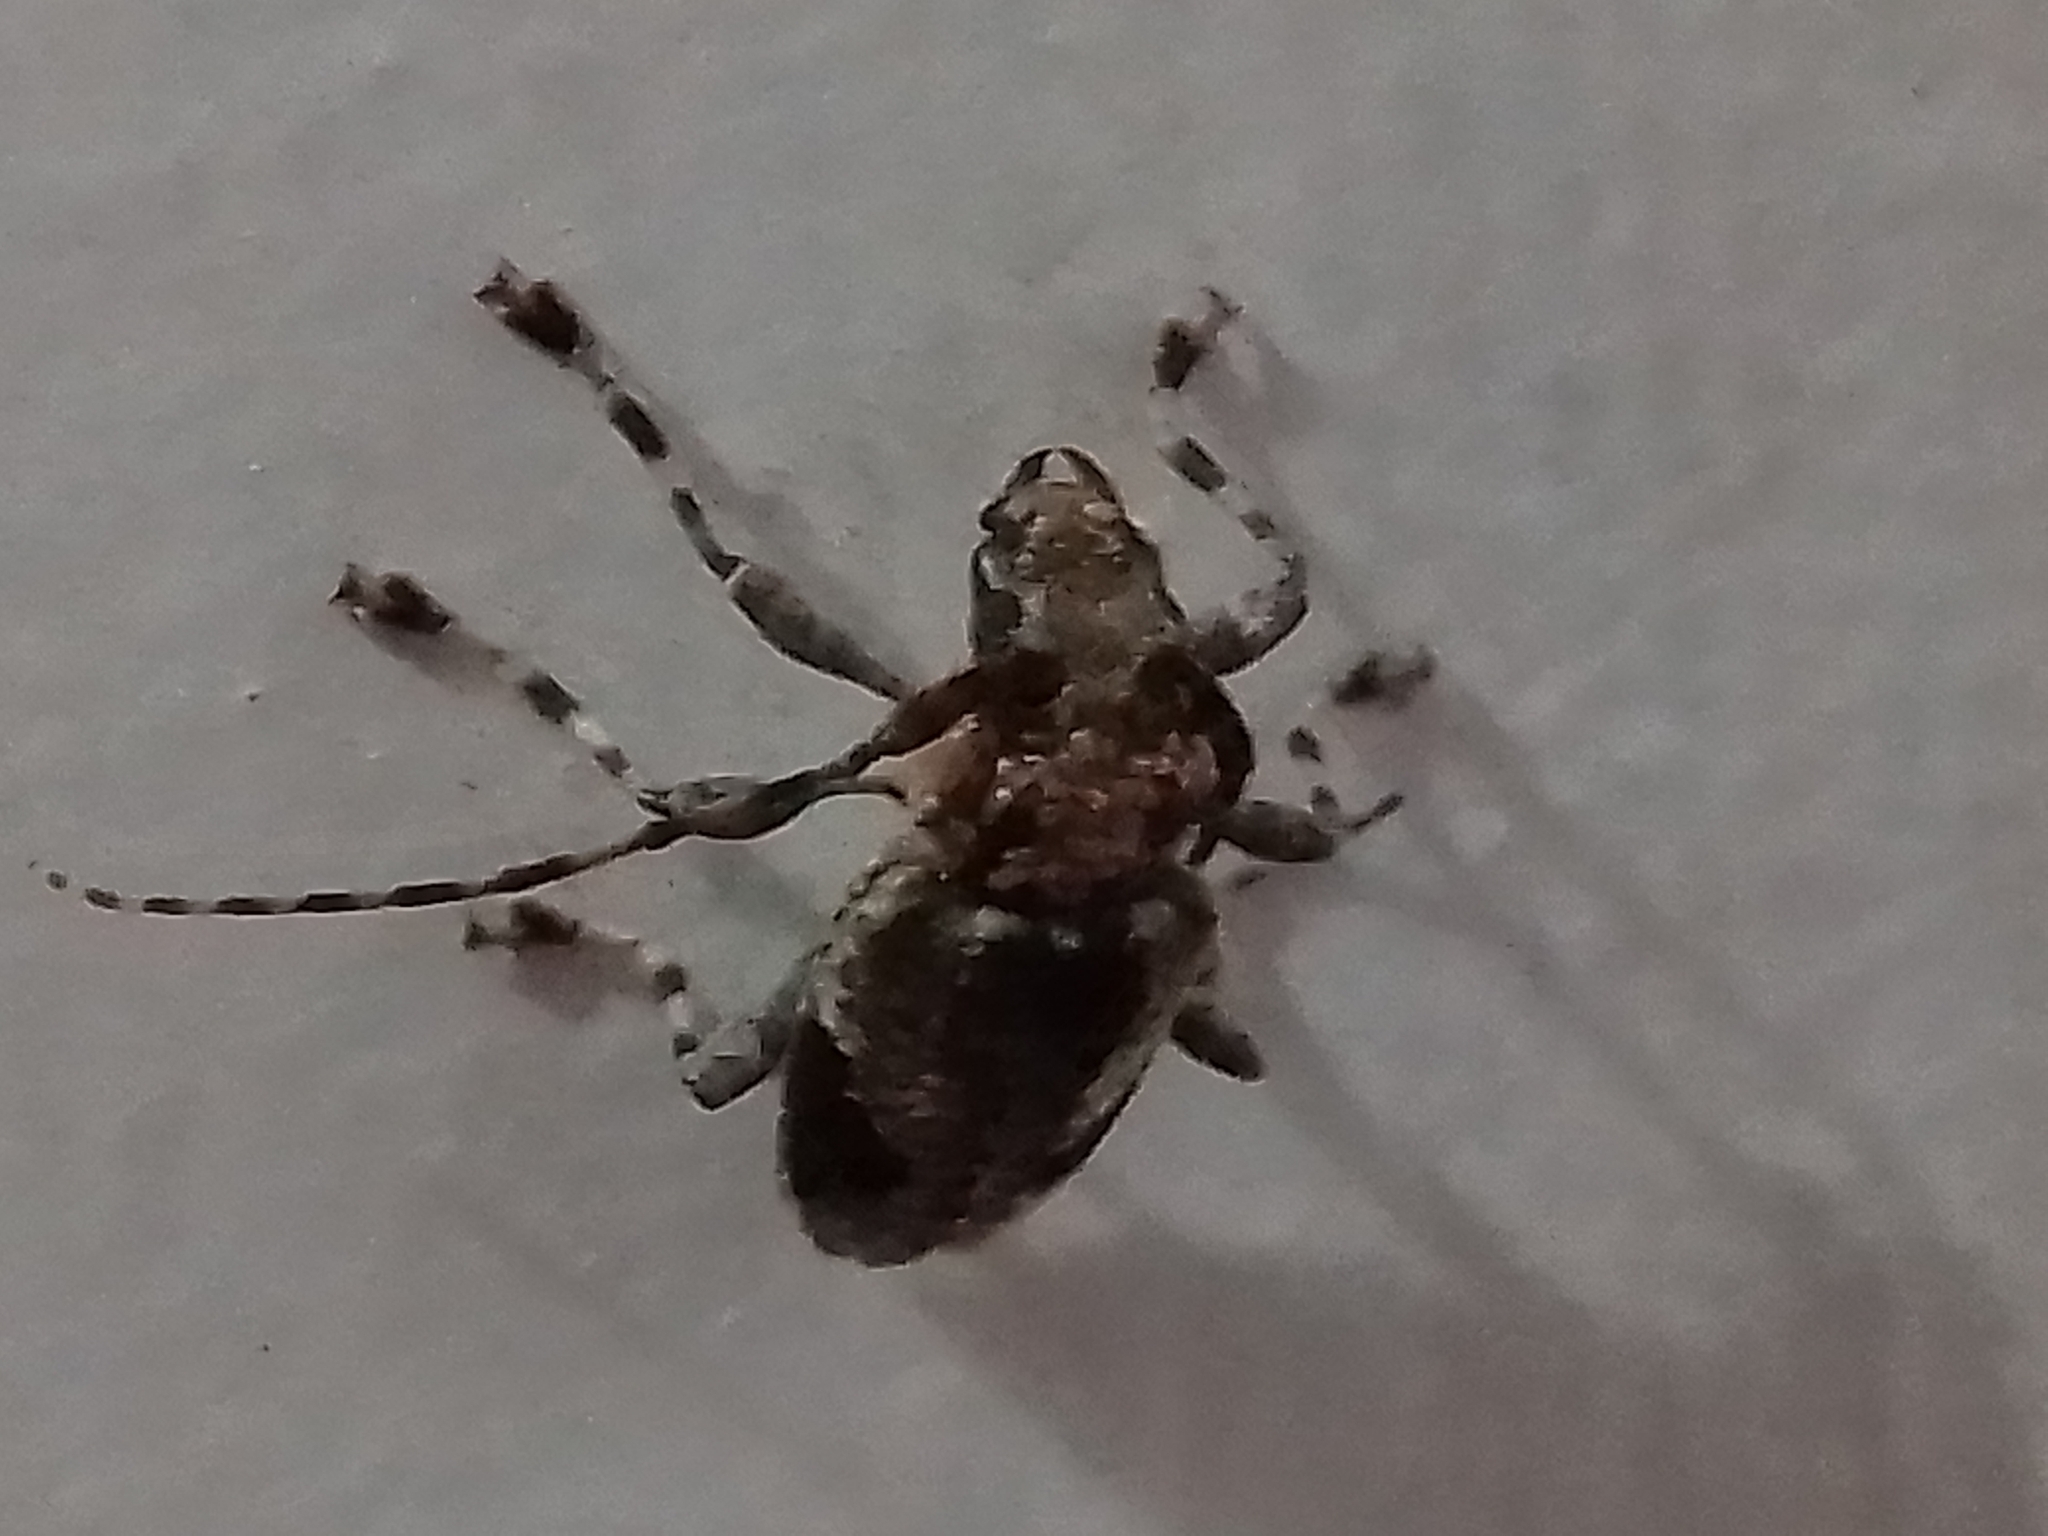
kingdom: Animalia
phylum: Arthropoda
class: Insecta
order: Coleoptera
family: Cerambycidae
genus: Psapharochrus
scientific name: Psapharochrus jaspideus
